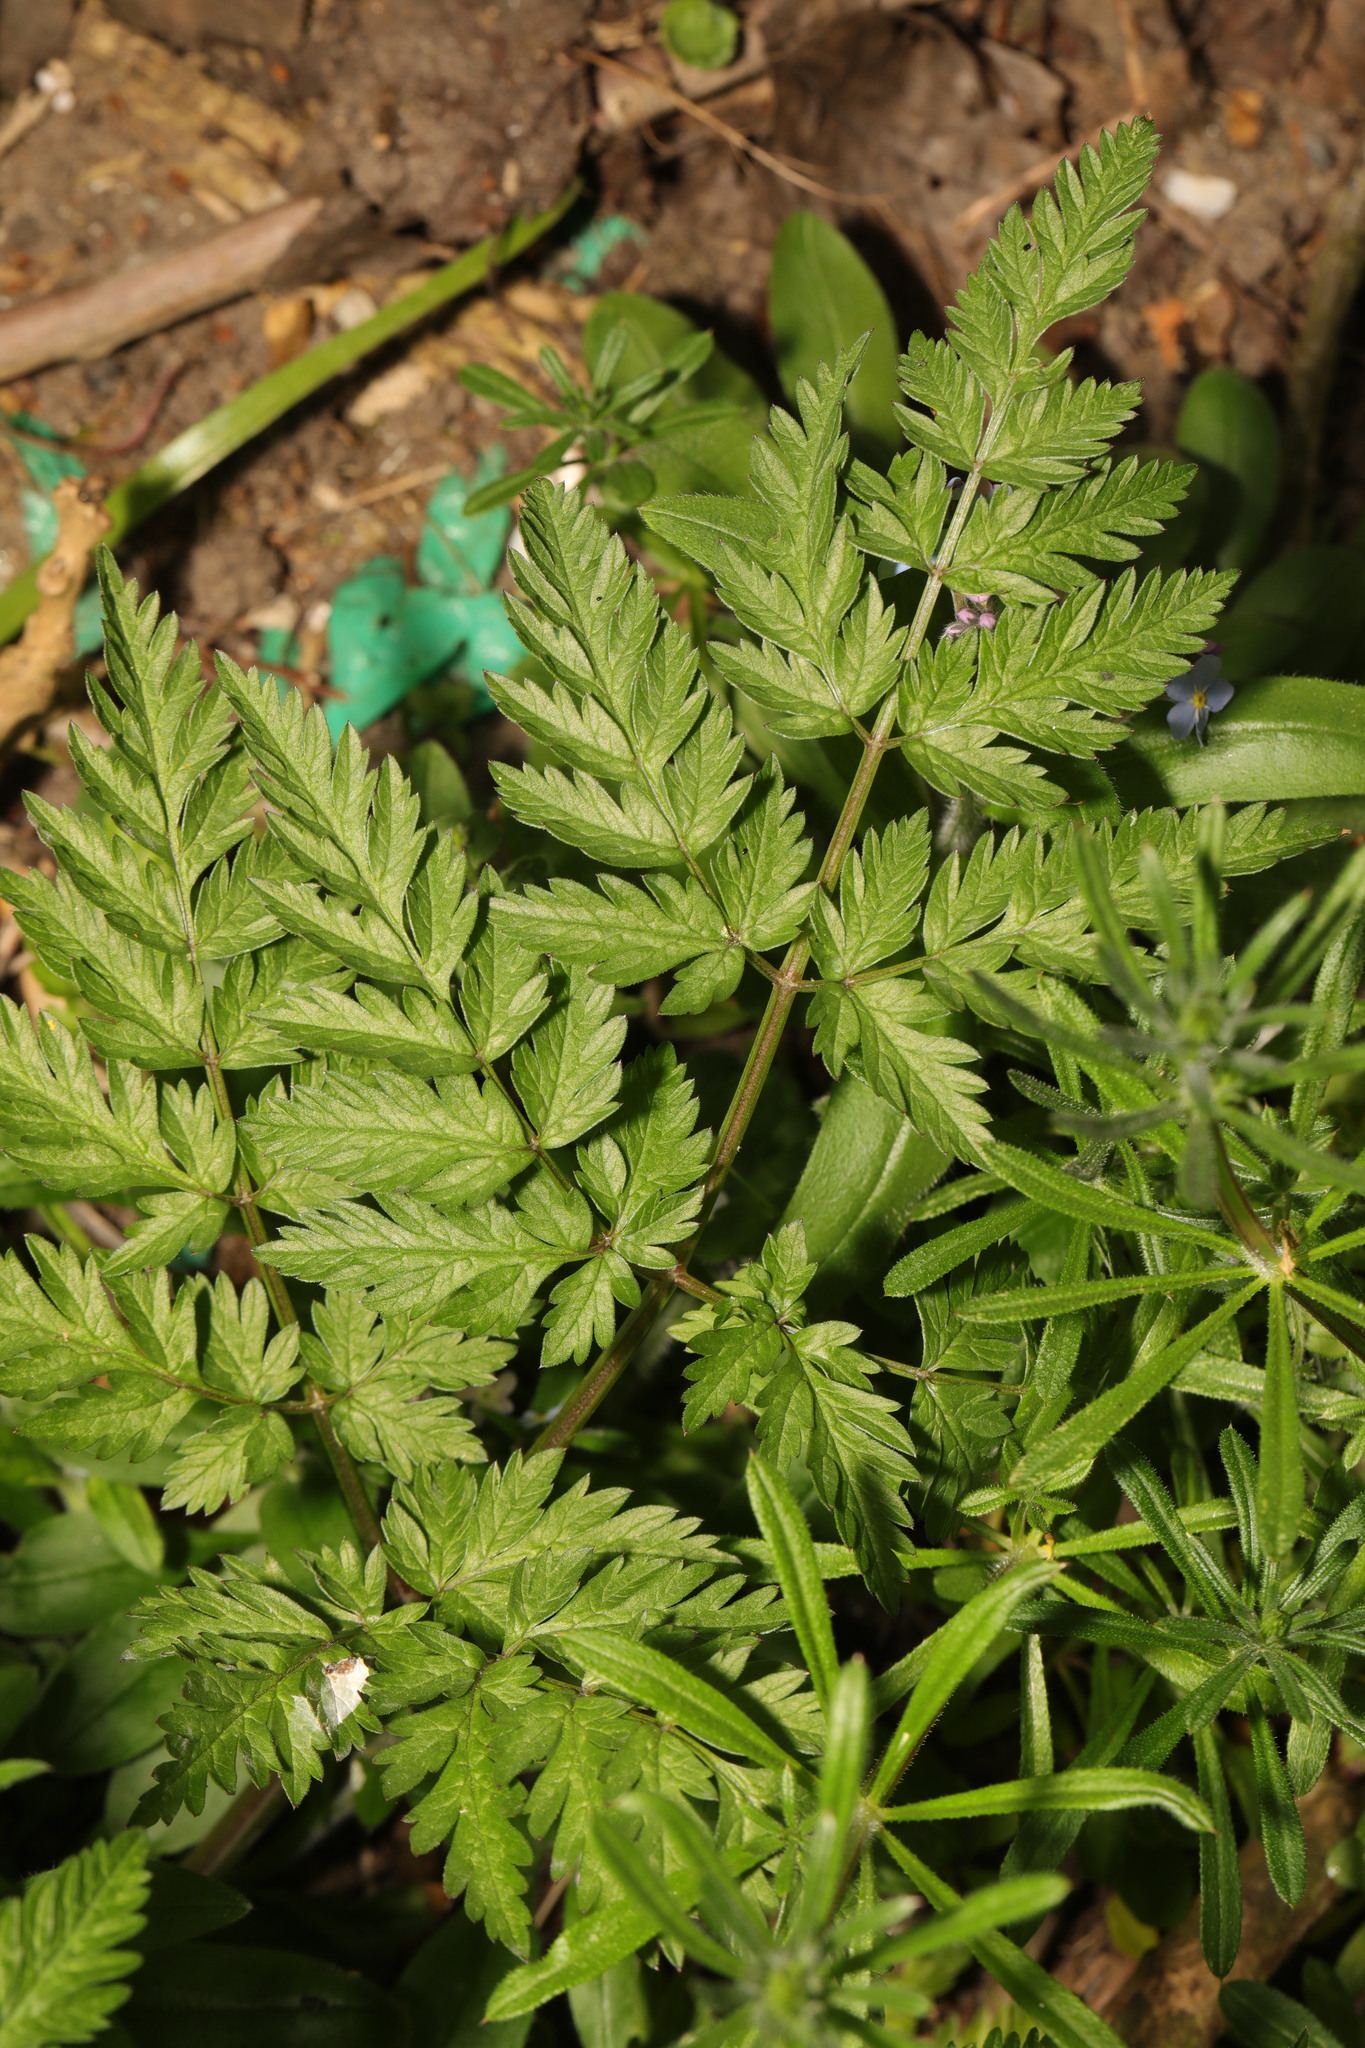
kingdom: Plantae
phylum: Tracheophyta
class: Magnoliopsida
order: Apiales
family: Apiaceae
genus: Anthriscus
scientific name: Anthriscus sylvestris
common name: Cow parsley
